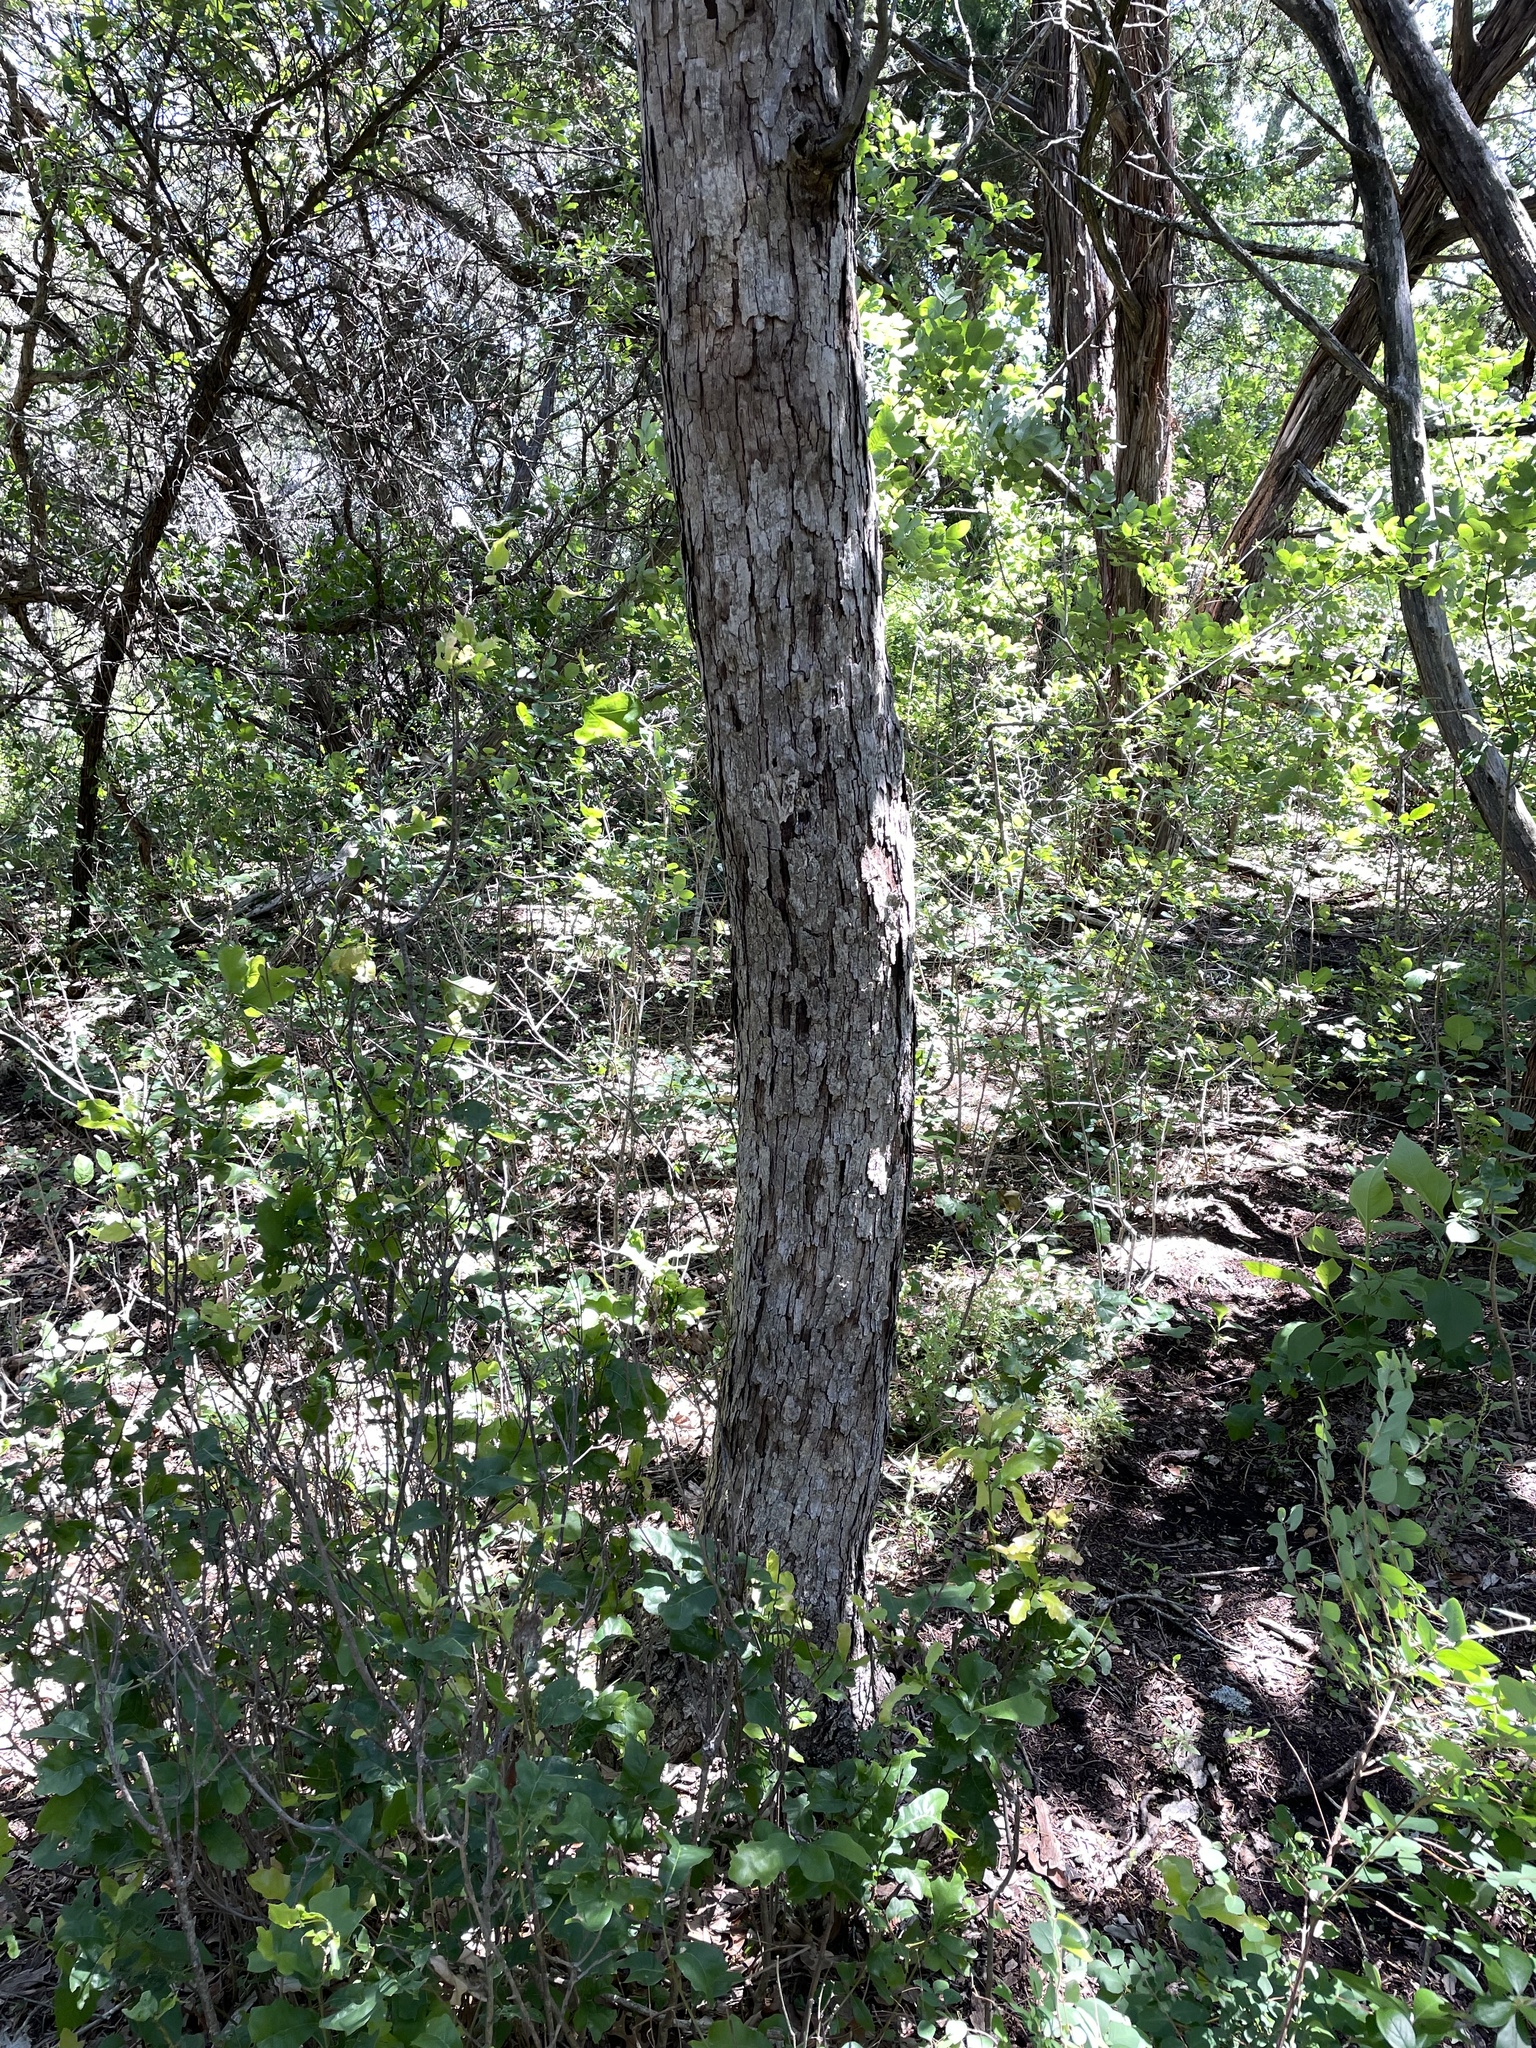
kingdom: Plantae
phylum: Tracheophyta
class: Magnoliopsida
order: Fagales
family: Fagaceae
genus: Quercus
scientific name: Quercus sinuata
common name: Durand oak
